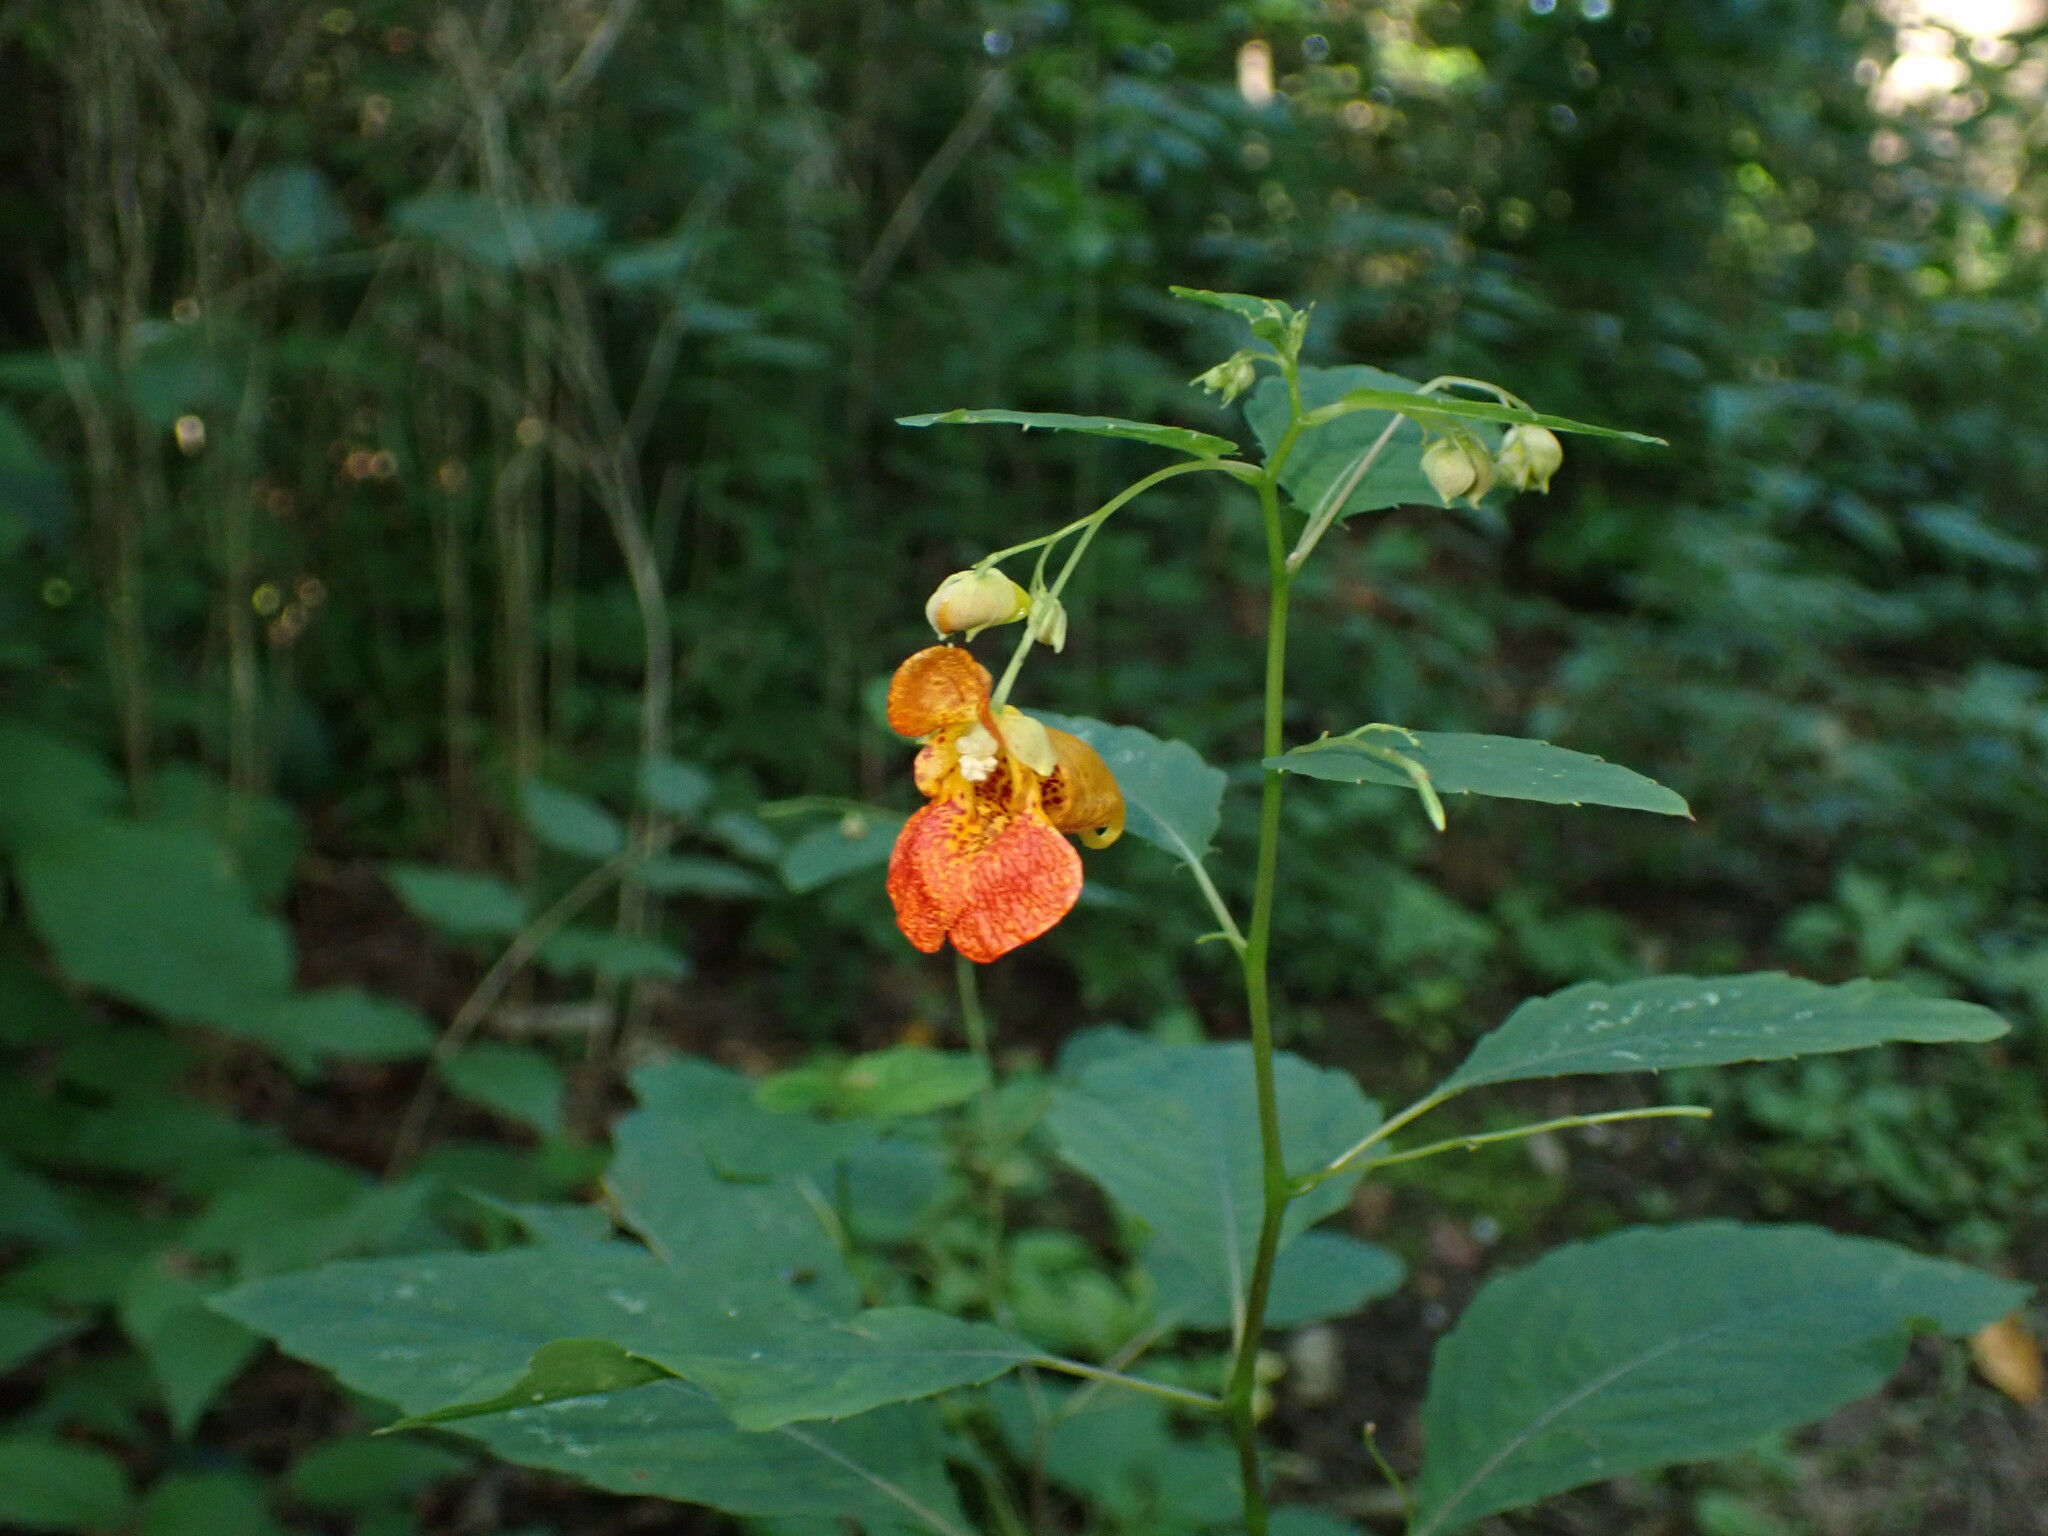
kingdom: Plantae
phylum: Tracheophyta
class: Magnoliopsida
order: Ericales
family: Balsaminaceae
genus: Impatiens
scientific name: Impatiens capensis
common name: Orange balsam
